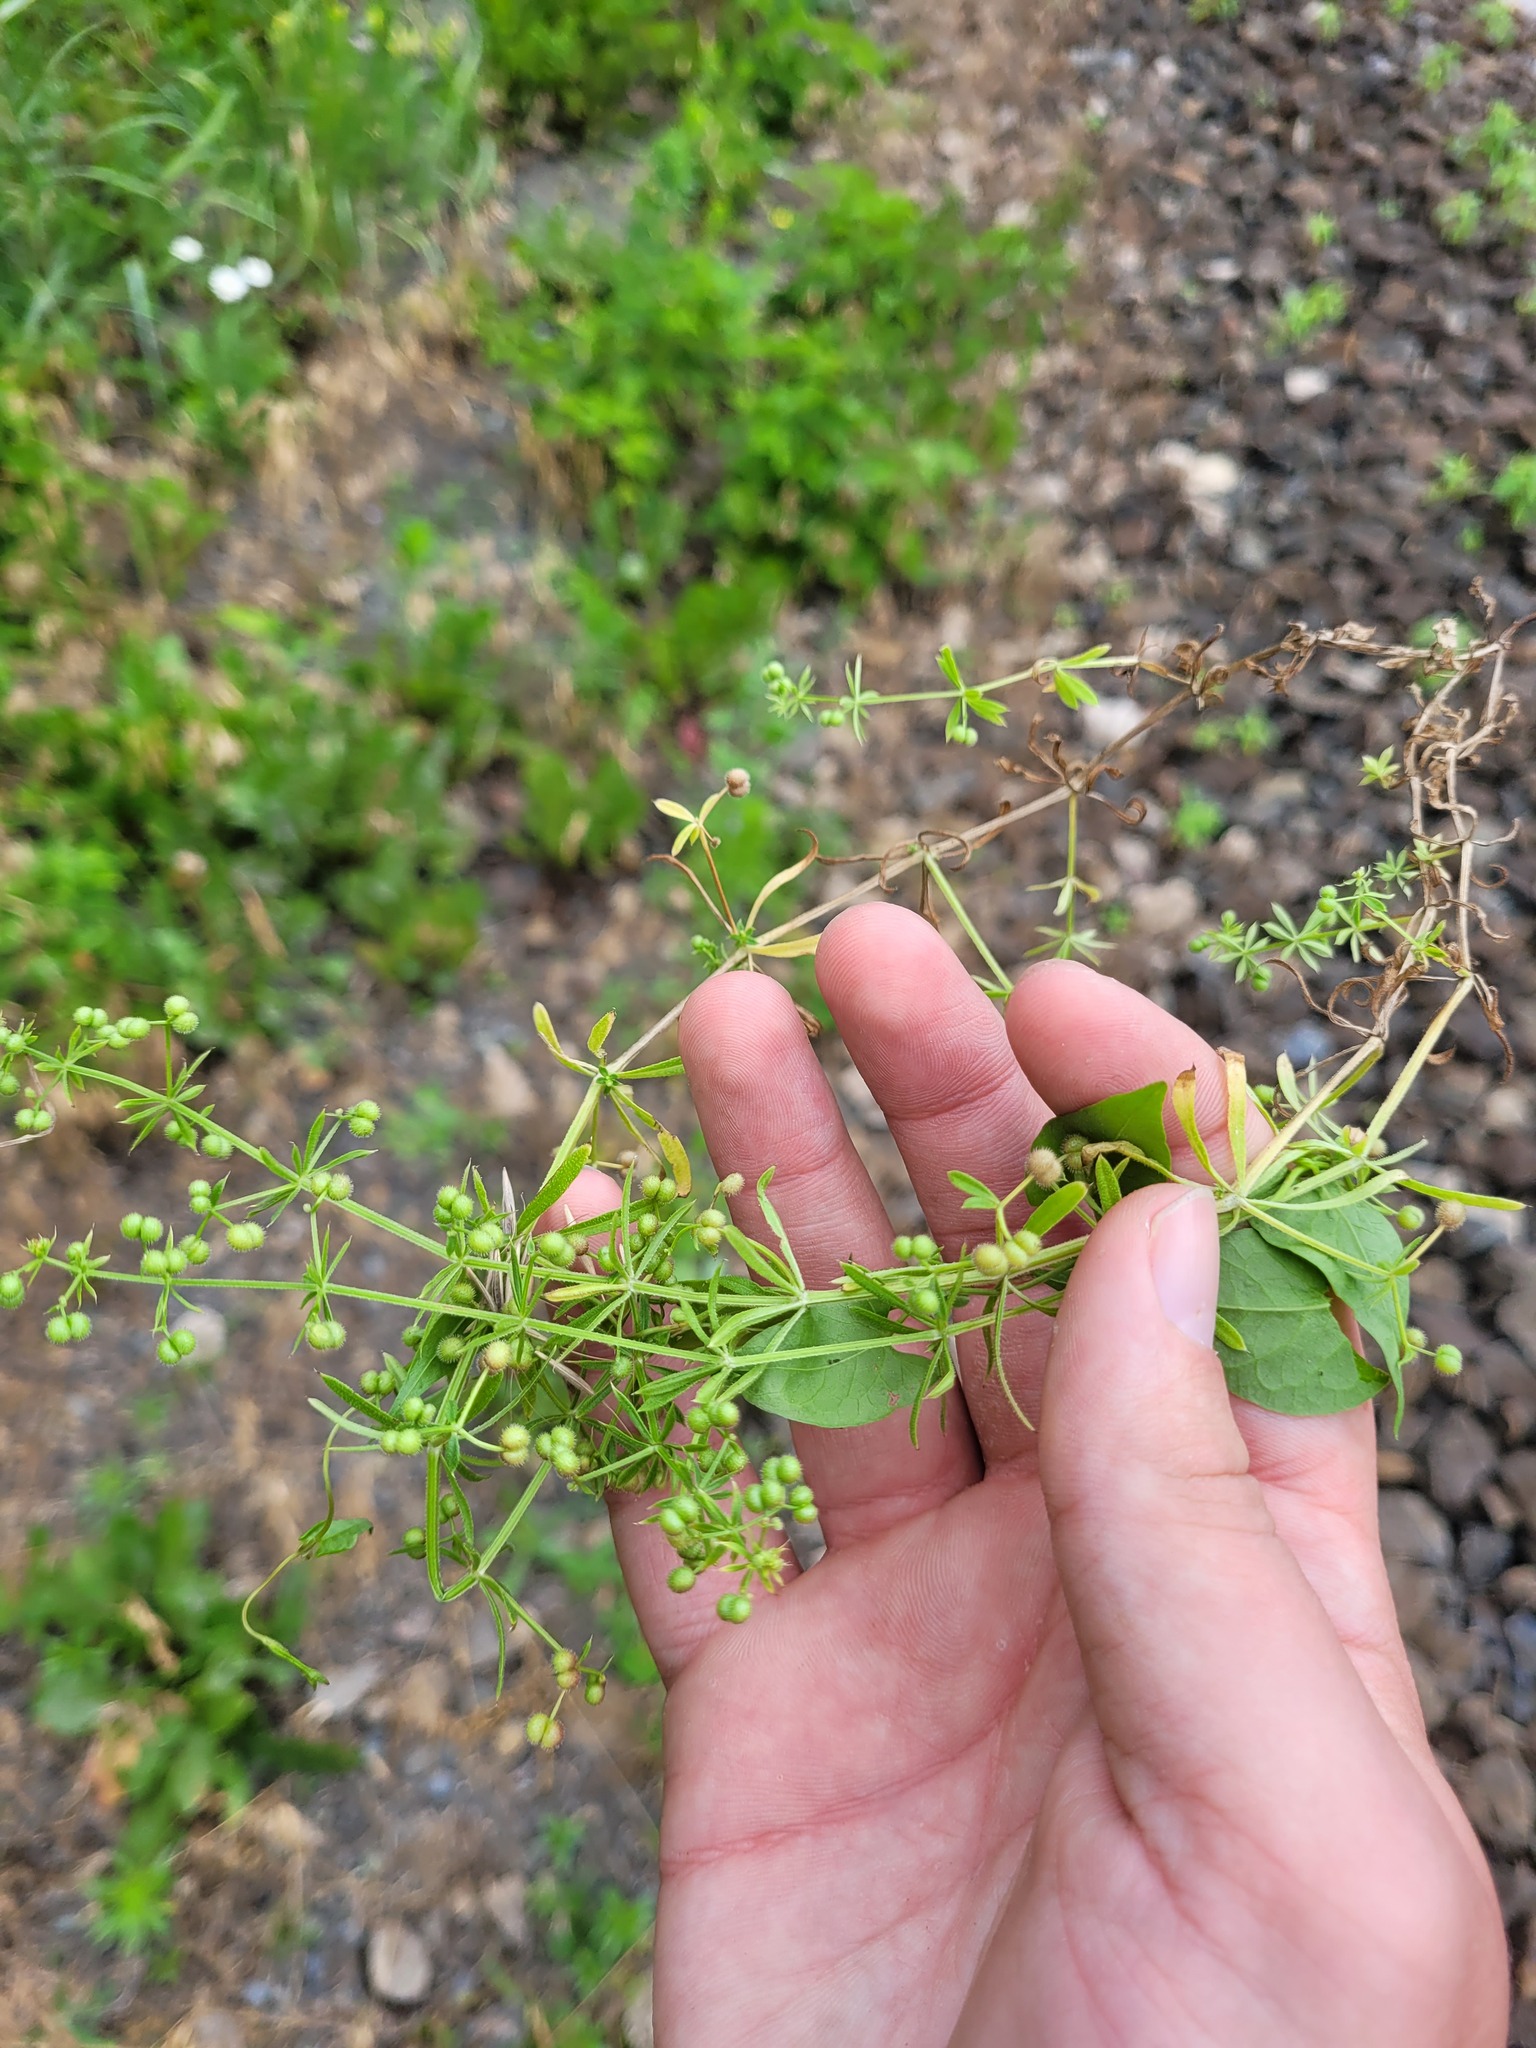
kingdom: Plantae
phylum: Tracheophyta
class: Magnoliopsida
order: Gentianales
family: Rubiaceae
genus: Galium
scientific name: Galium
